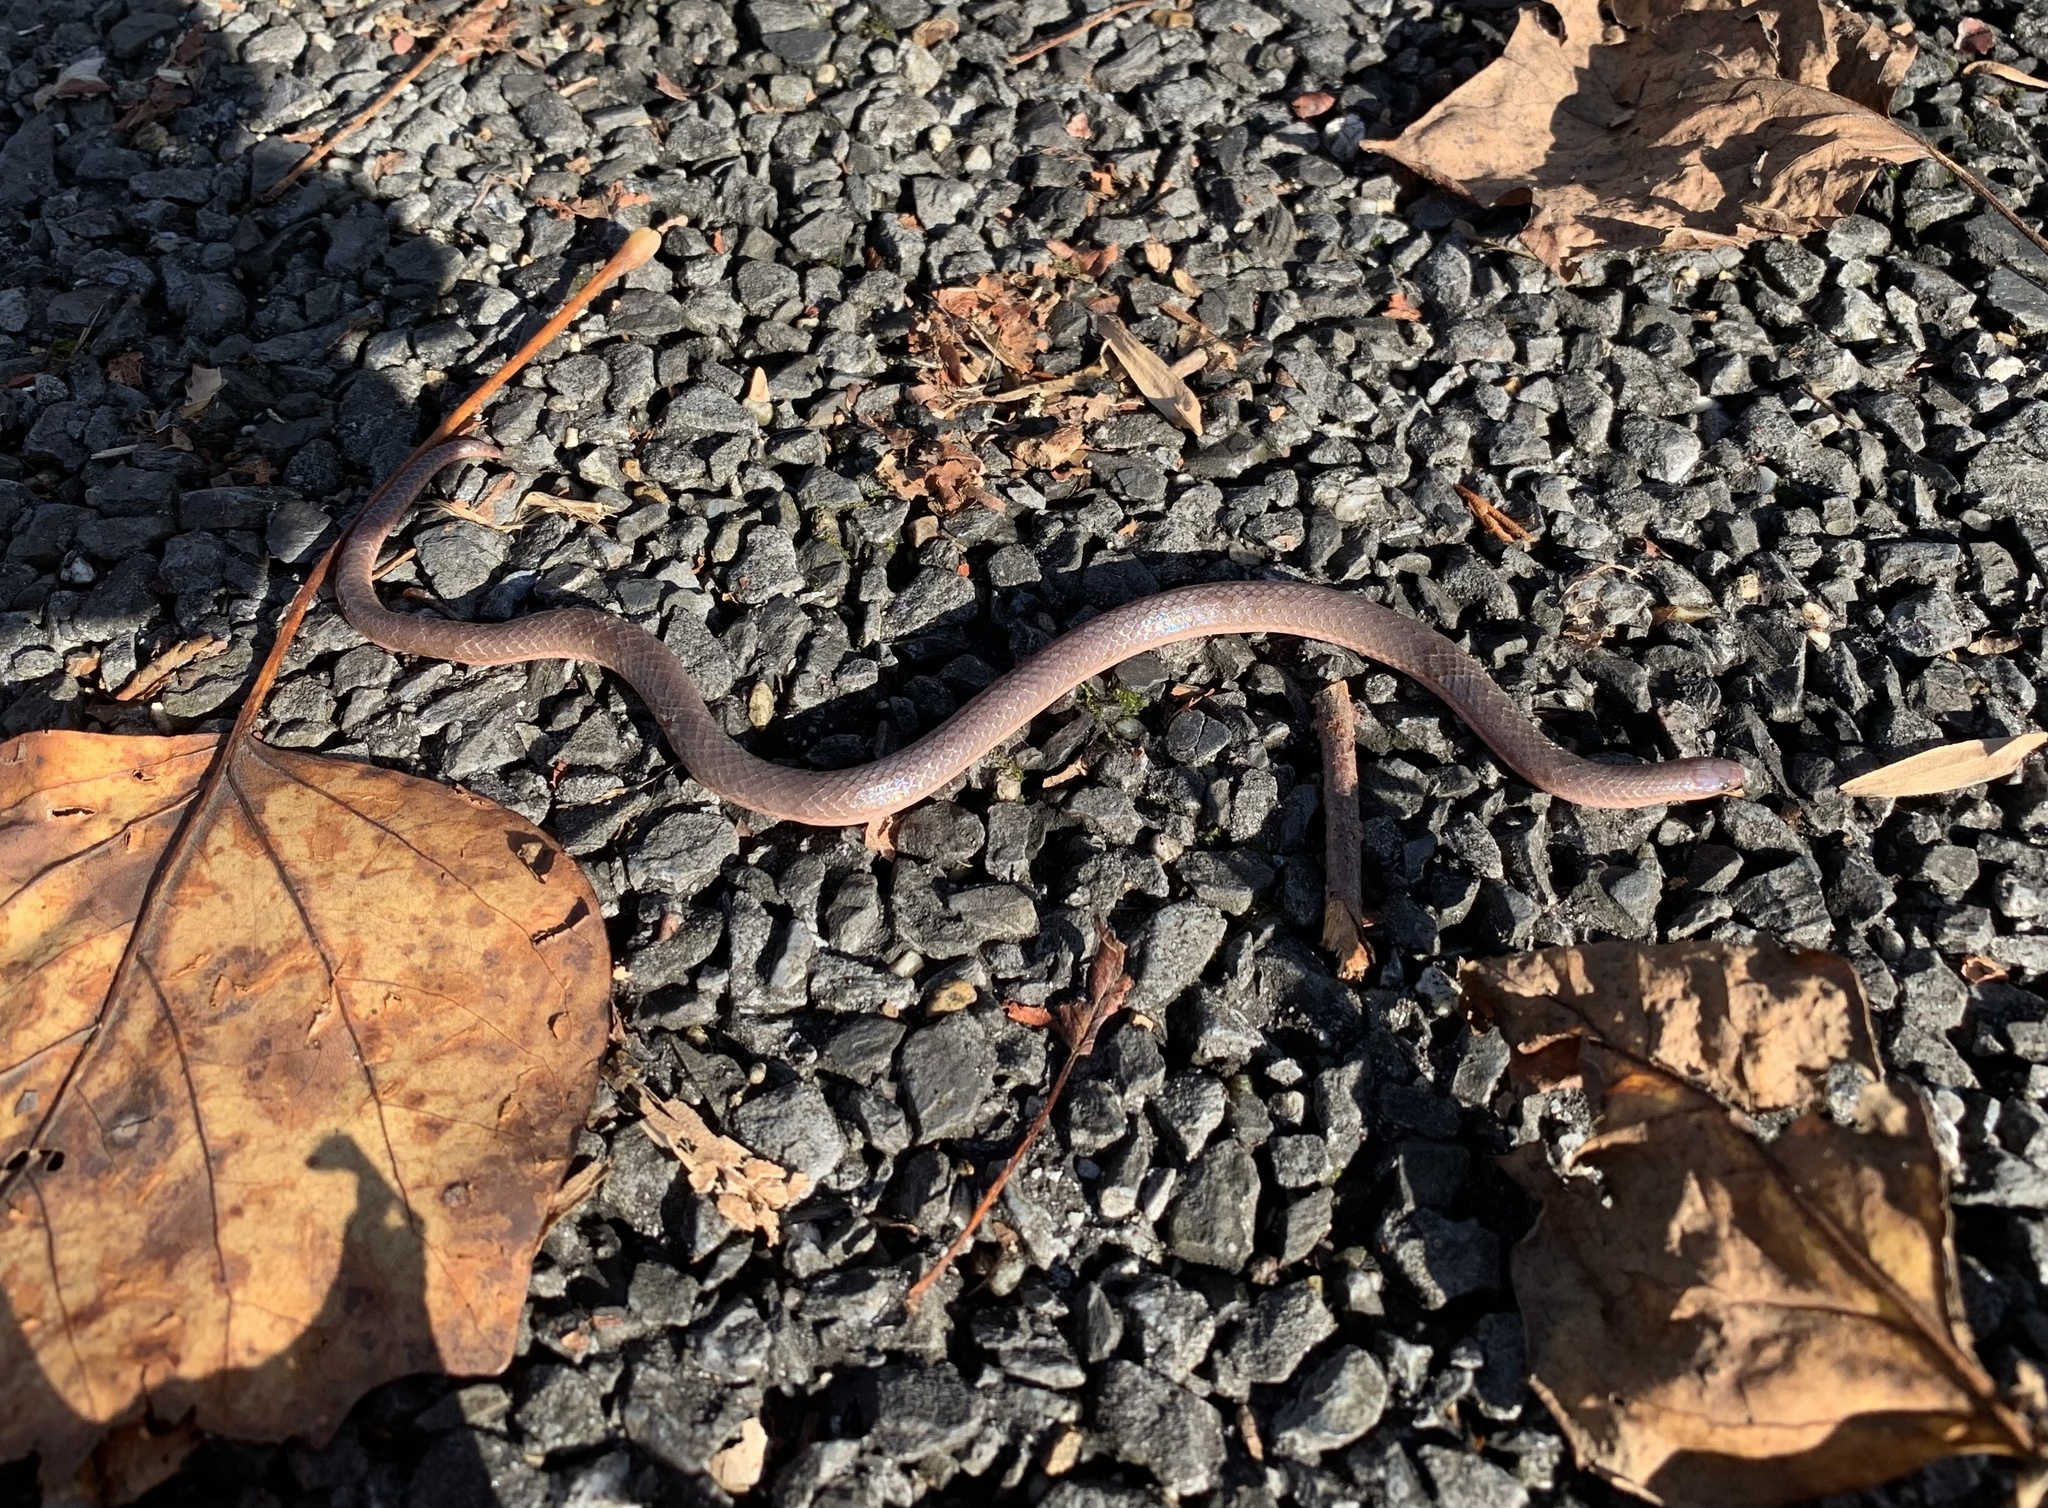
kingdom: Animalia
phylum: Chordata
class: Squamata
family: Colubridae
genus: Carphophis
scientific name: Carphophis amoenus
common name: Eastern worm snake
